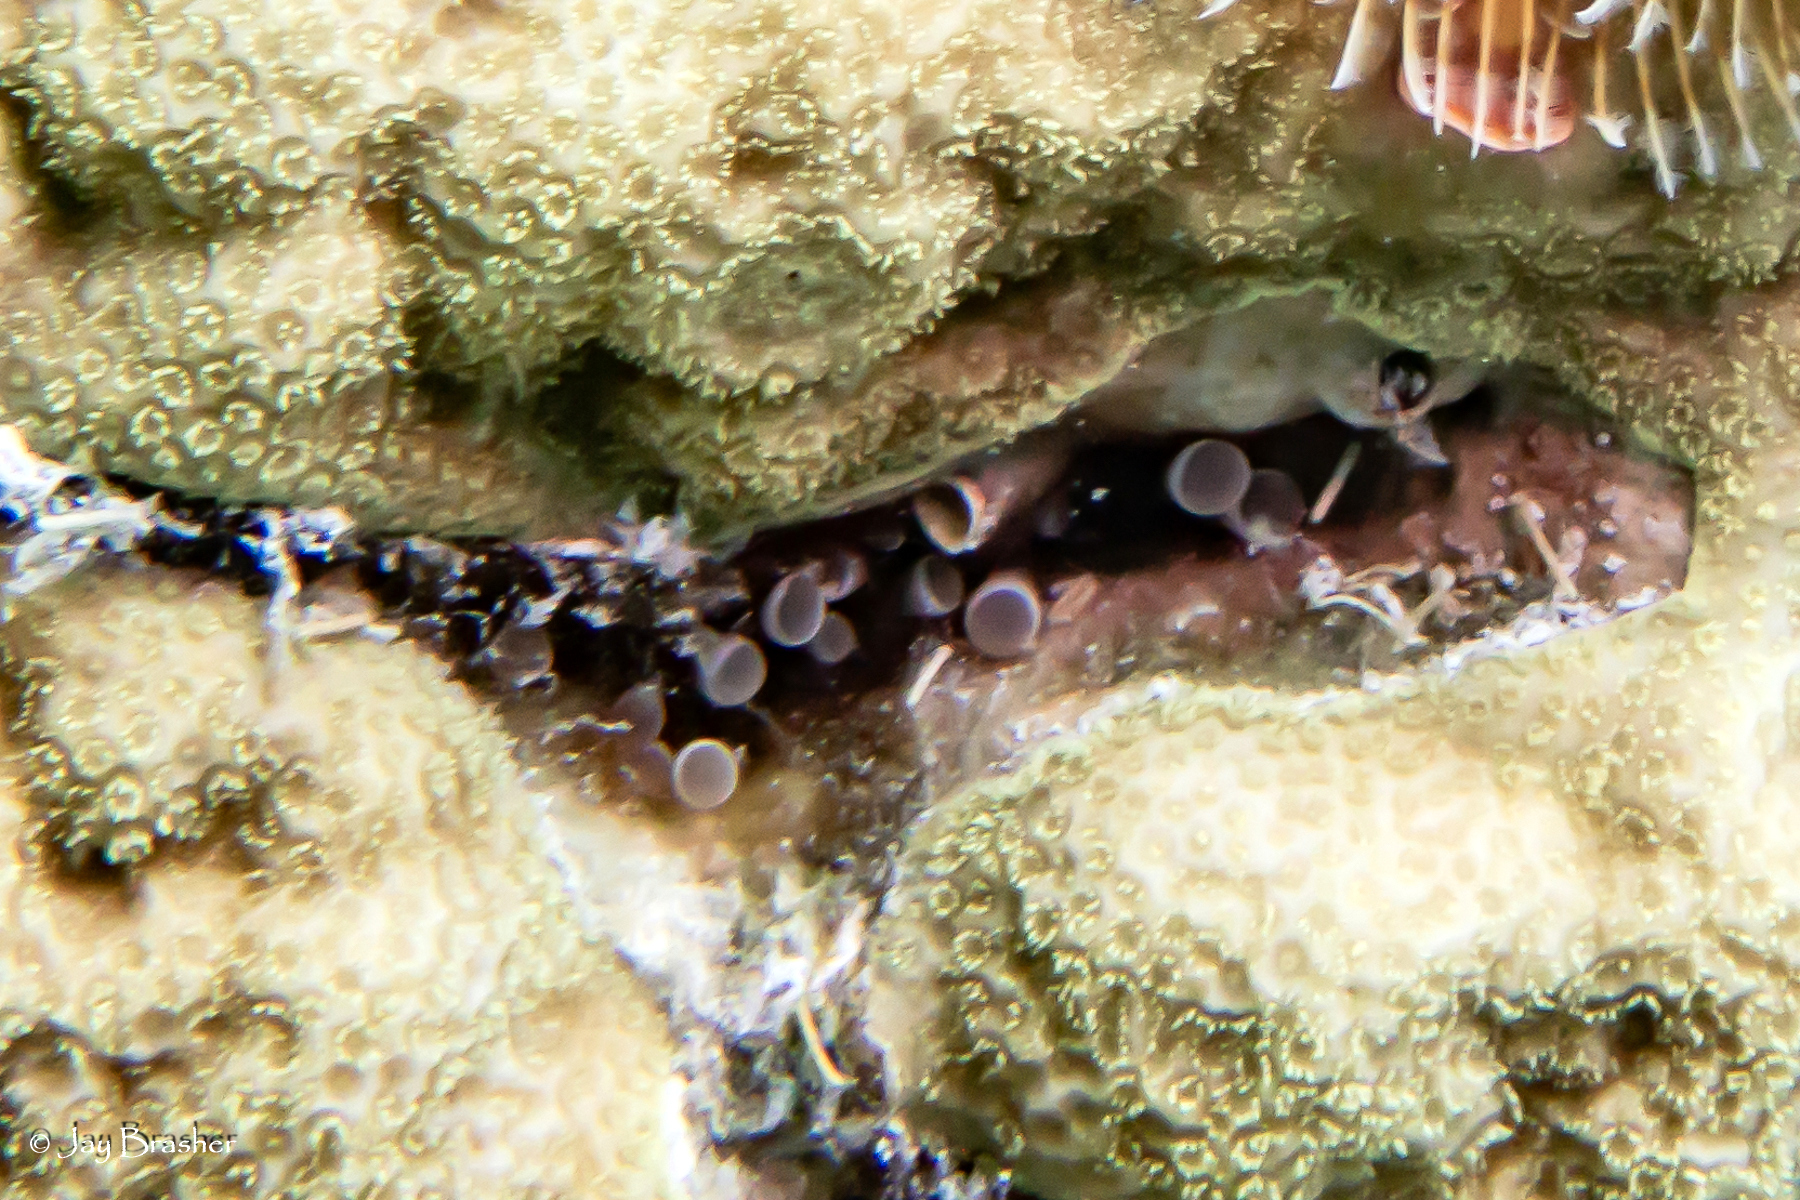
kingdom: Animalia
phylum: Cnidaria
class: Anthozoa
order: Actiniaria
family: Aliciidae
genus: Lebrunia
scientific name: Lebrunia coralligens
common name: Hidden anemone
